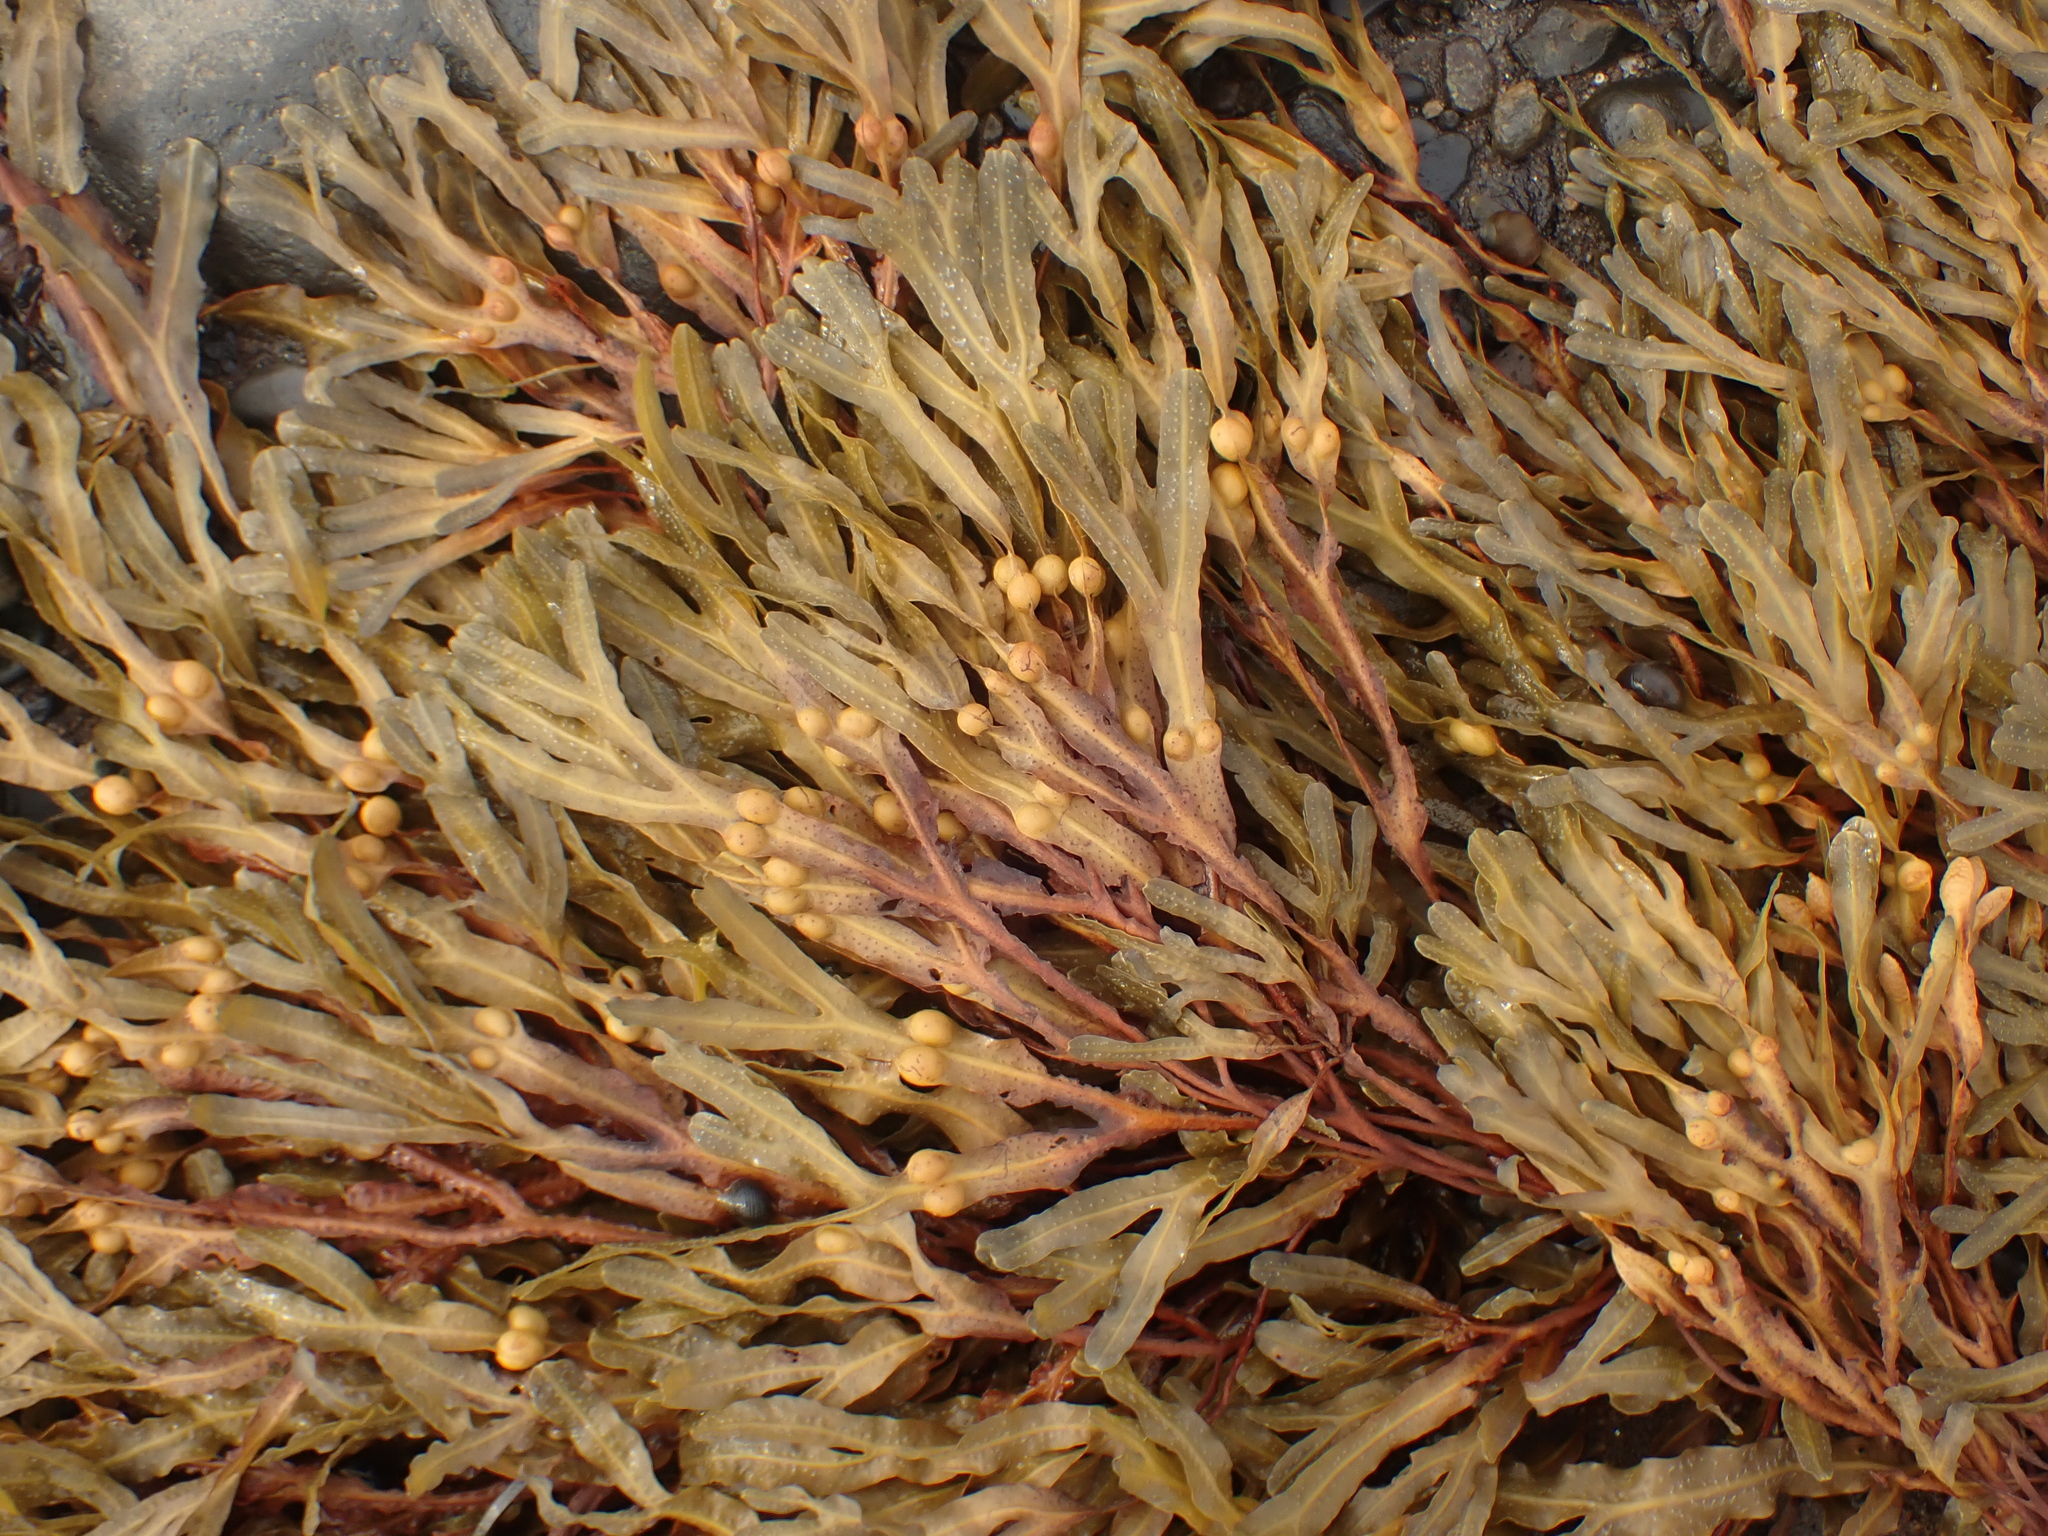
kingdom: Chromista
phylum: Ochrophyta
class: Phaeophyceae
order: Fucales
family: Fucaceae
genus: Fucus
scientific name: Fucus vesiculosus
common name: Bladder wrack
